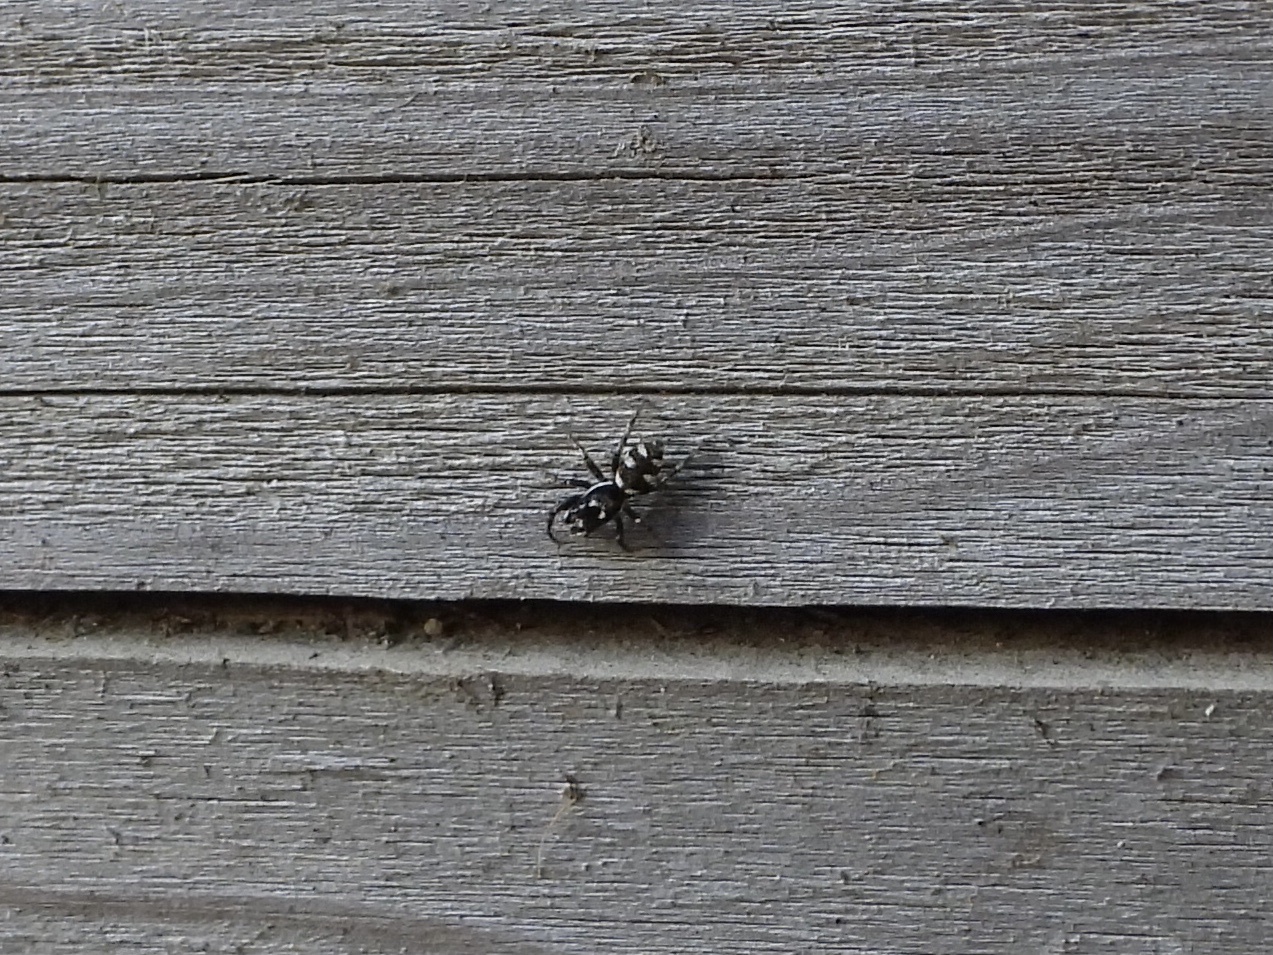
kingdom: Animalia
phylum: Arthropoda
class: Arachnida
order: Araneae
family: Salticidae
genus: Salticus
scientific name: Salticus scenicus
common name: Zebra jumper
